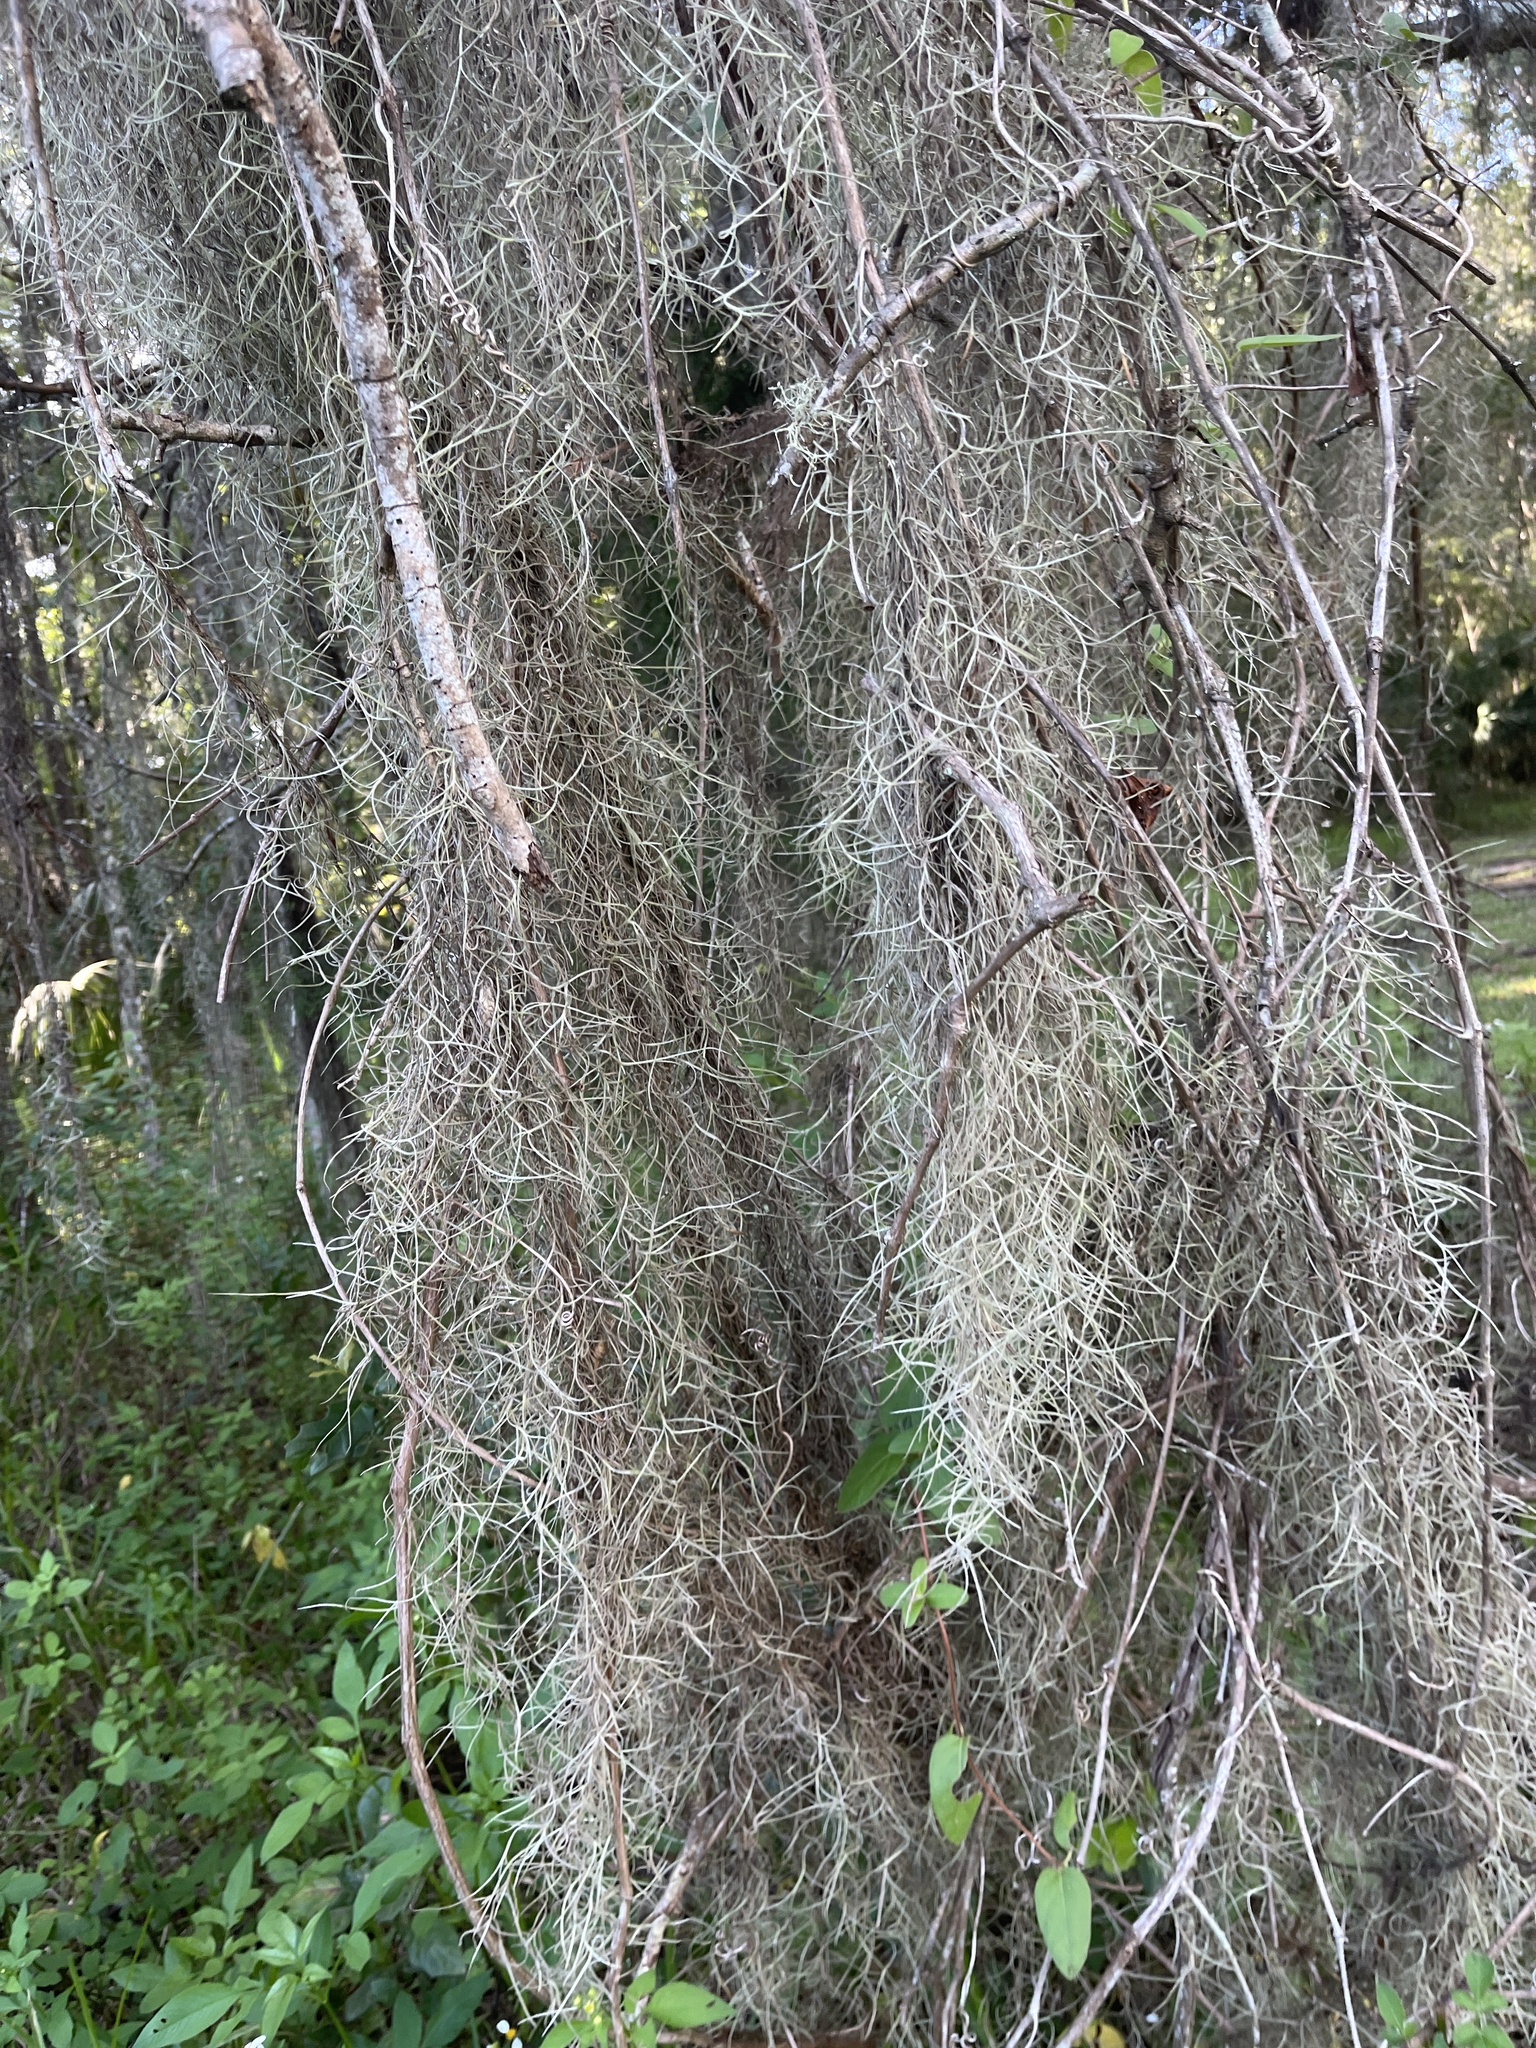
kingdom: Plantae
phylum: Tracheophyta
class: Liliopsida
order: Poales
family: Bromeliaceae
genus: Tillandsia
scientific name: Tillandsia usneoides
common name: Spanish moss
